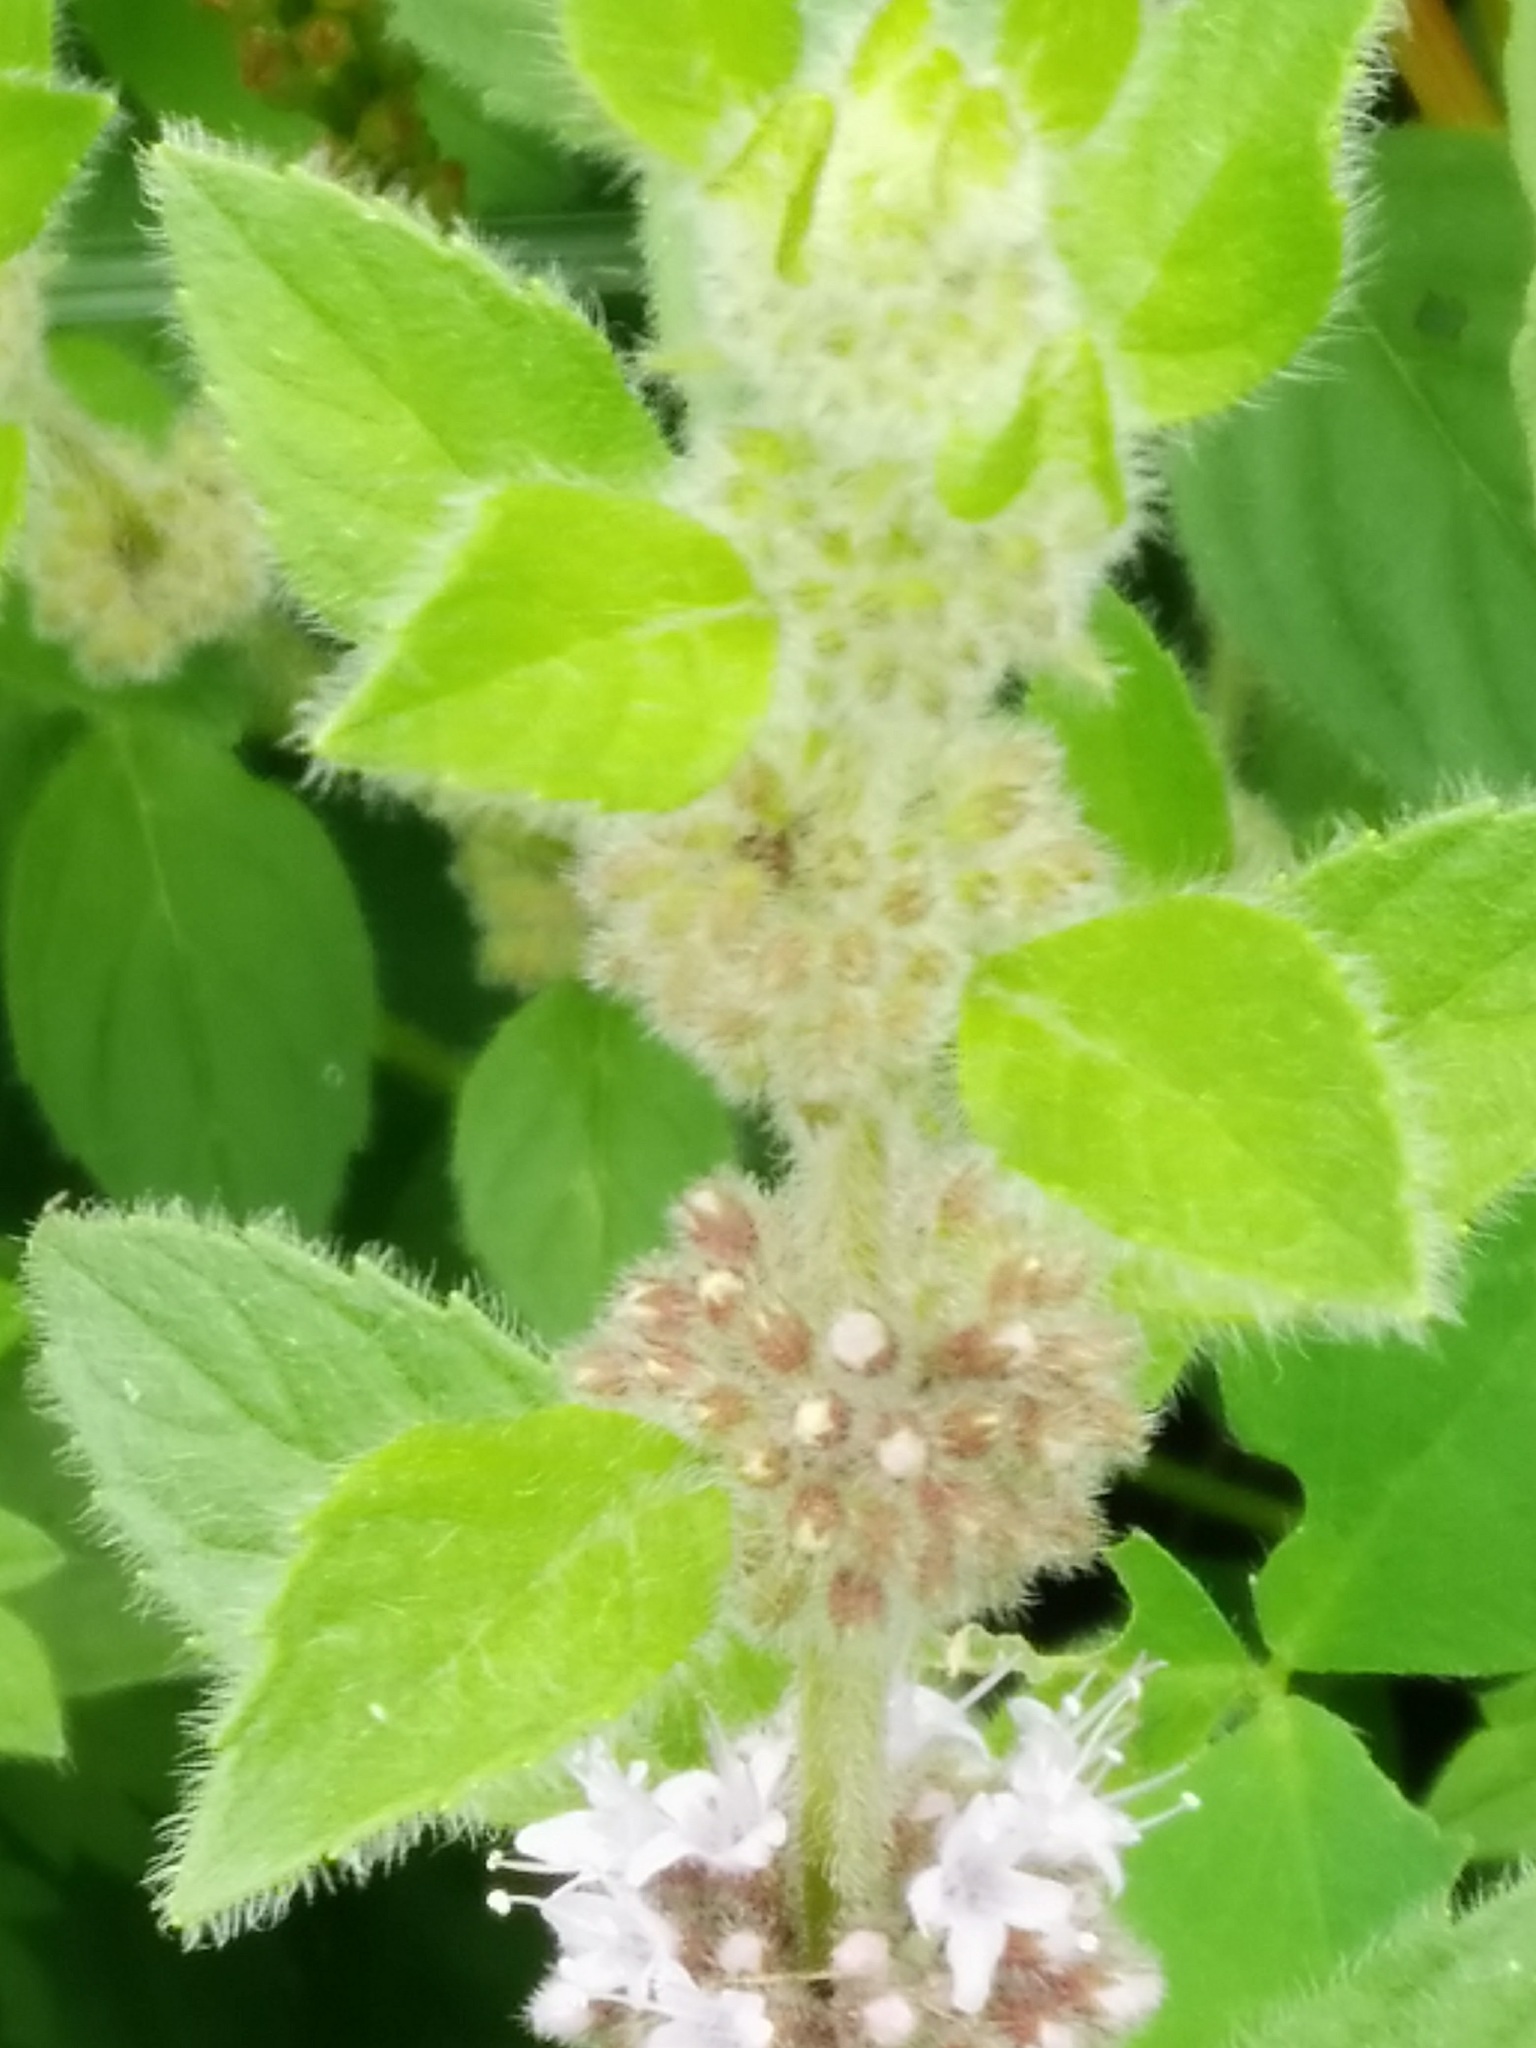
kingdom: Plantae
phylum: Tracheophyta
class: Magnoliopsida
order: Lamiales
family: Lamiaceae
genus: Mentha
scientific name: Mentha arvensis
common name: Corn mint
